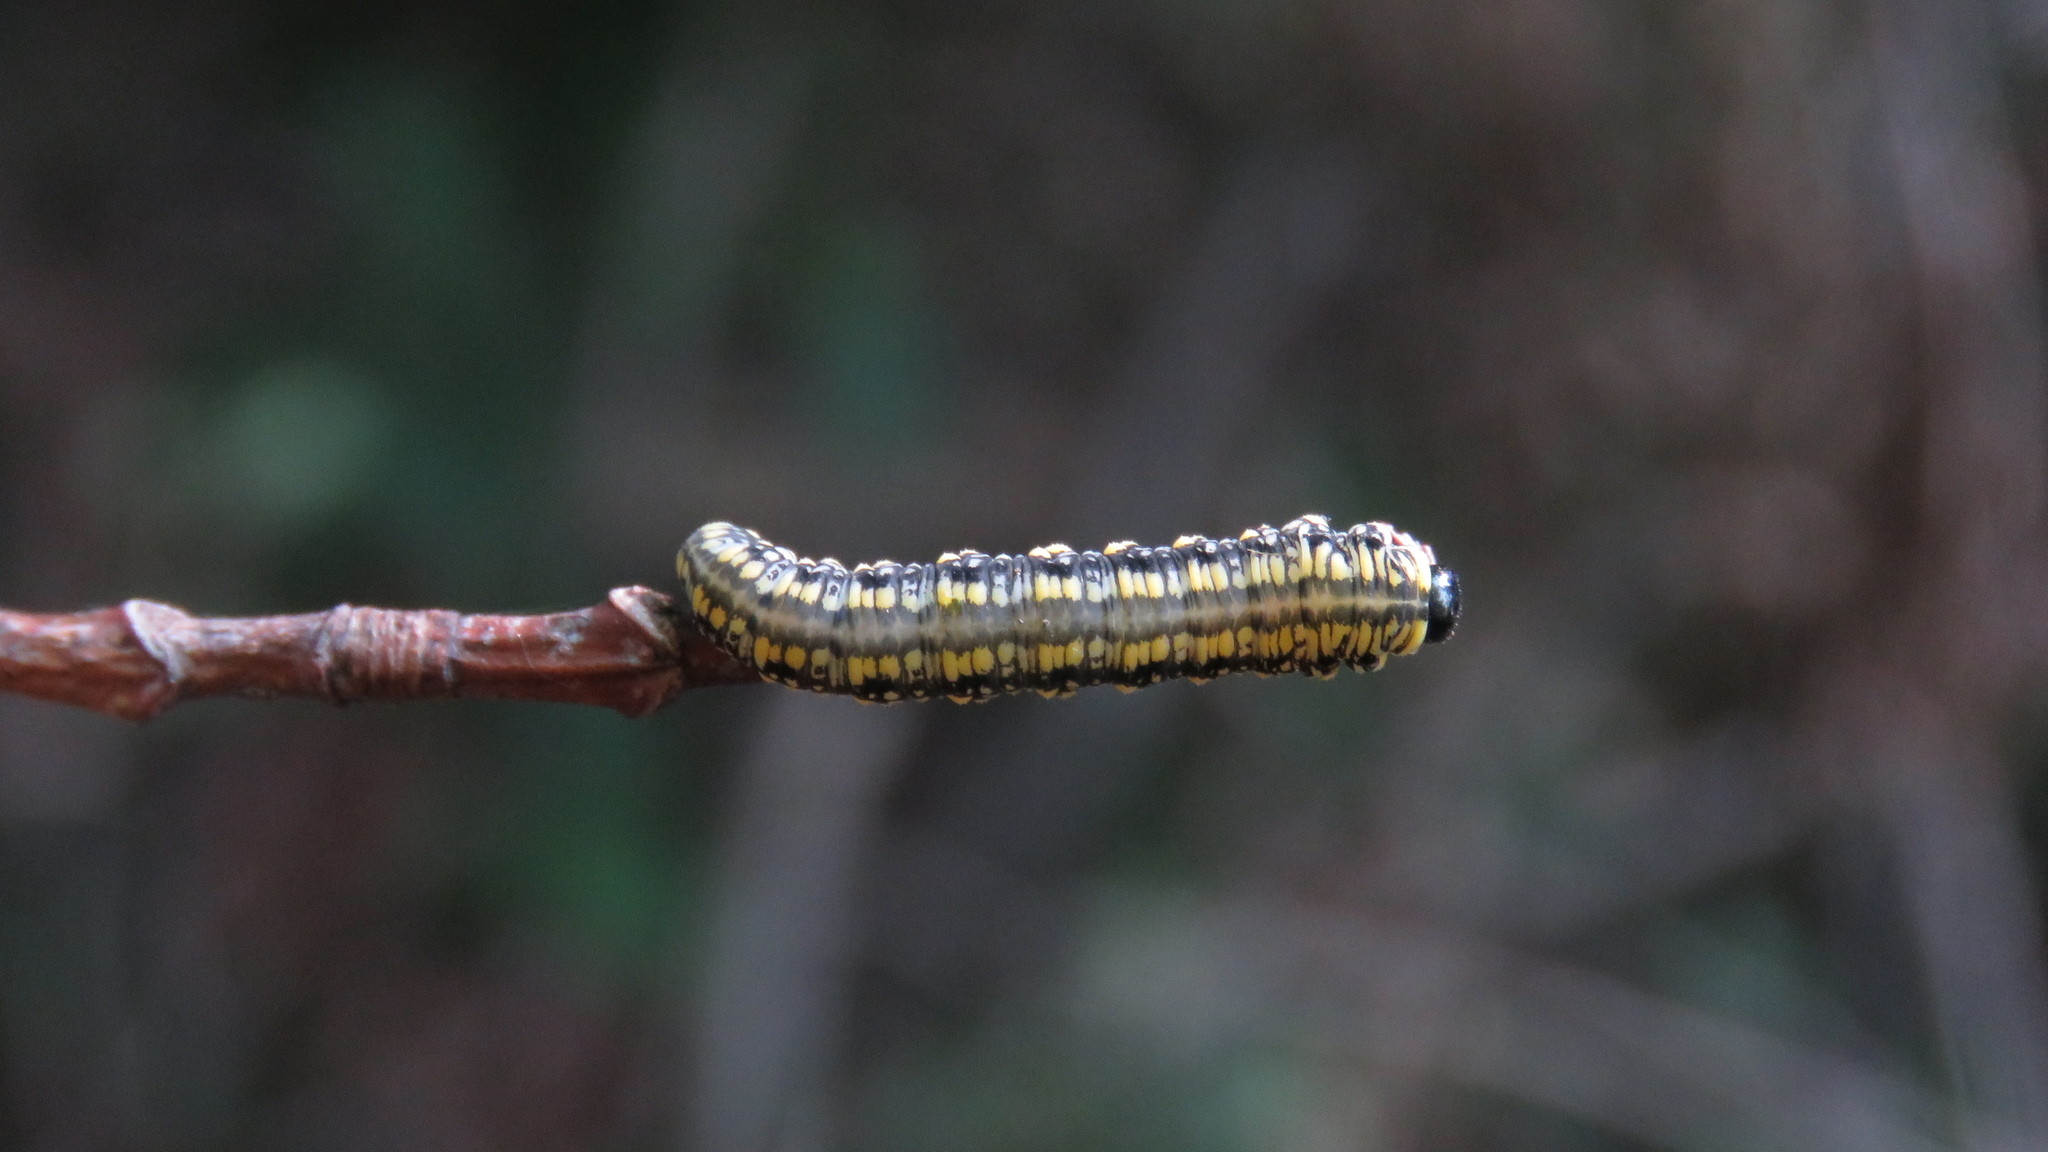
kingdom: Animalia
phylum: Arthropoda
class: Insecta
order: Hymenoptera
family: Diprionidae
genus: Diprion
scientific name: Diprion similis
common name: Pine sawfly
